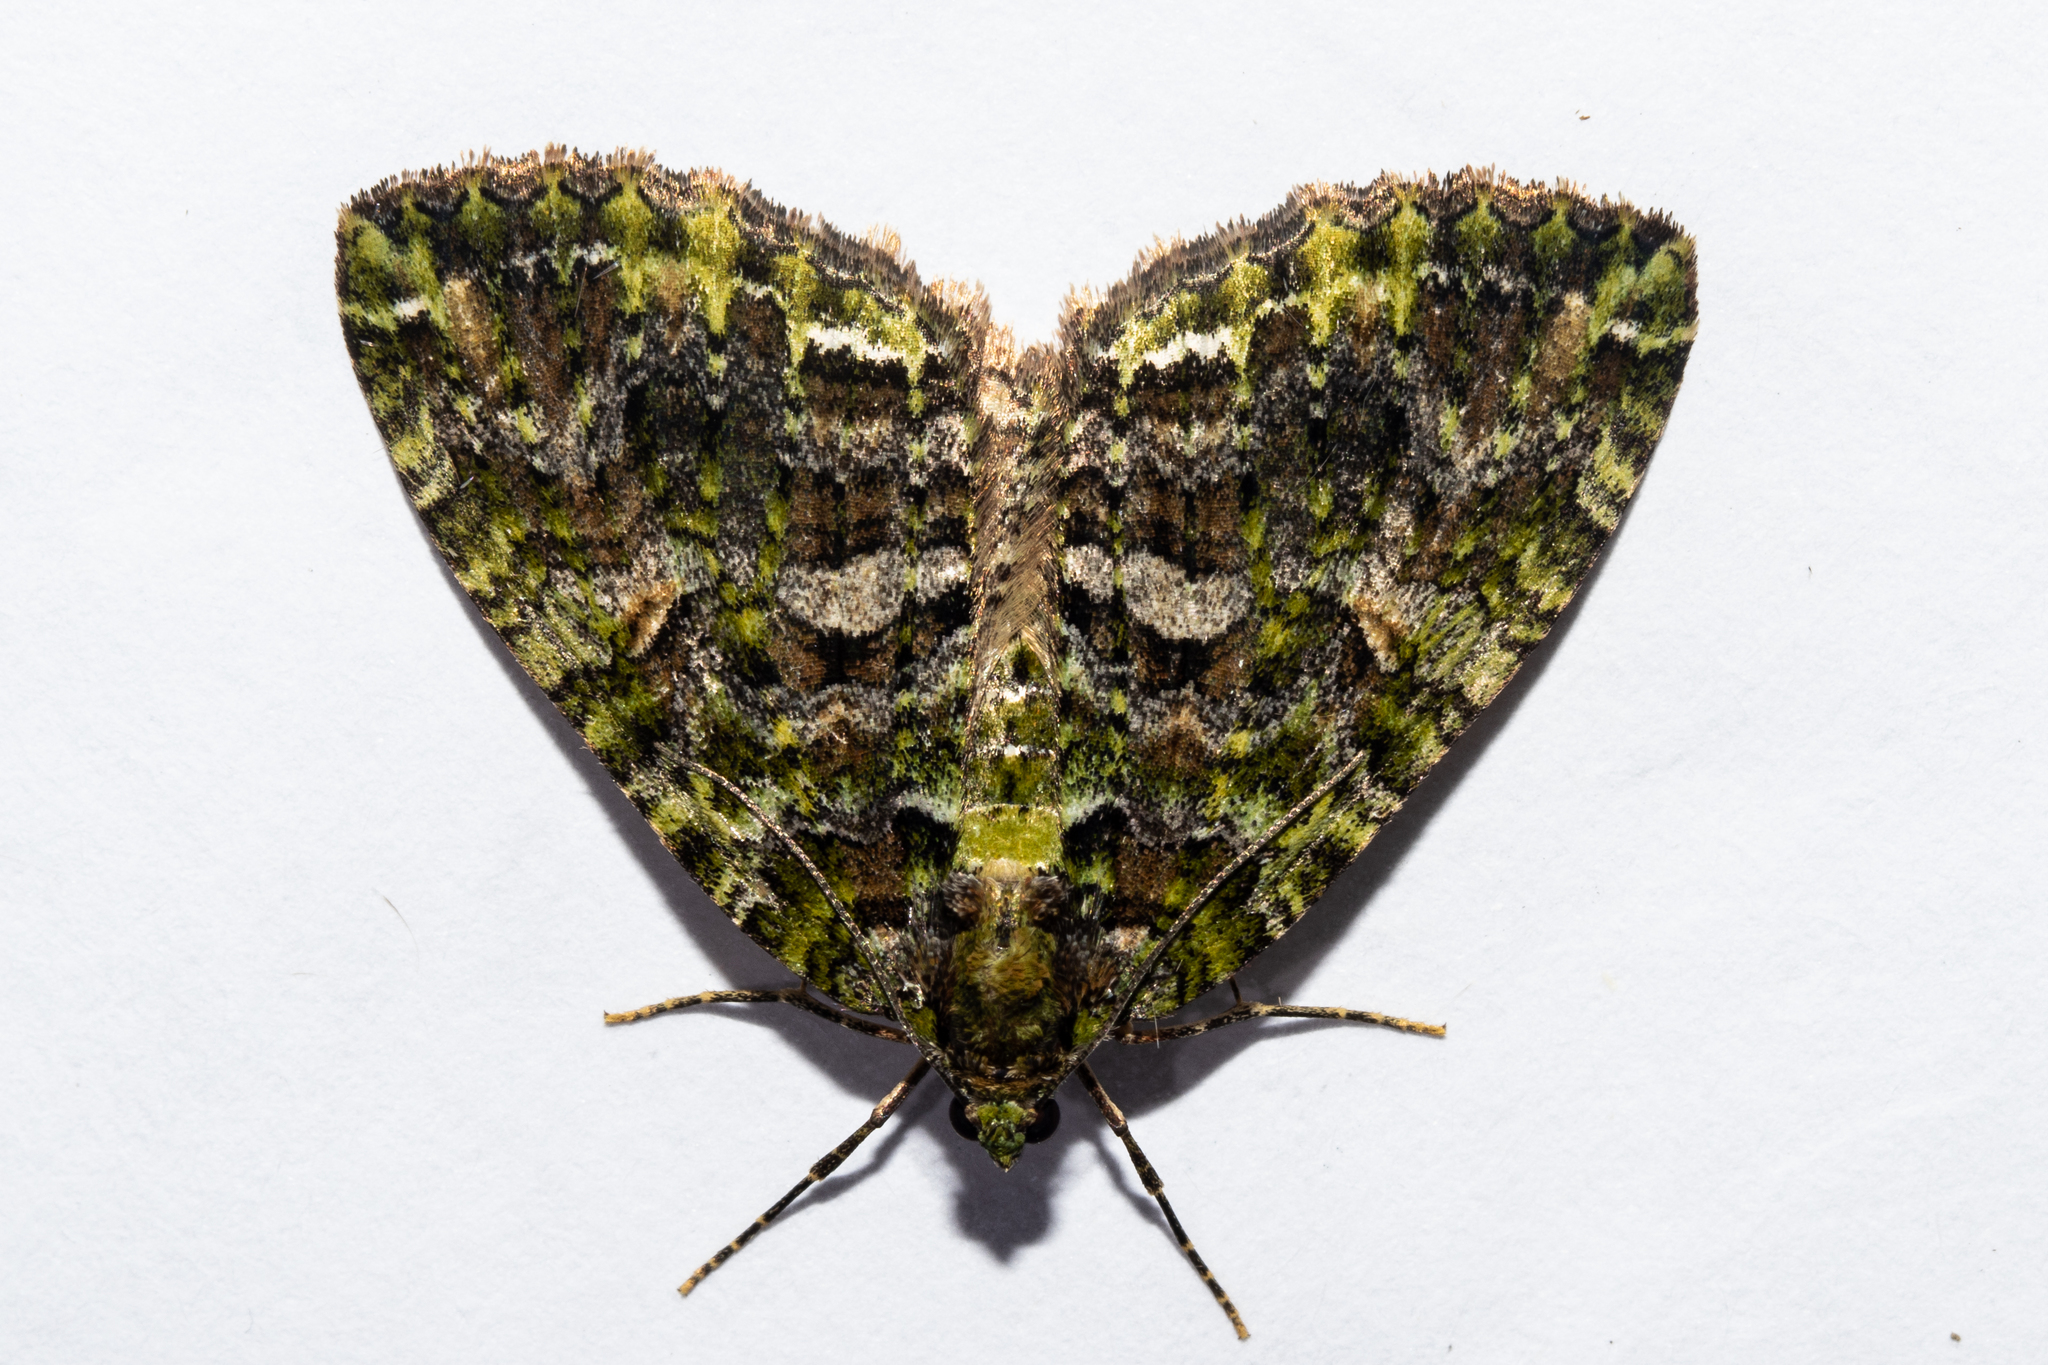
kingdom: Animalia
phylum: Arthropoda
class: Insecta
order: Lepidoptera
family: Geometridae
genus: Austrocidaria
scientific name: Austrocidaria similata
